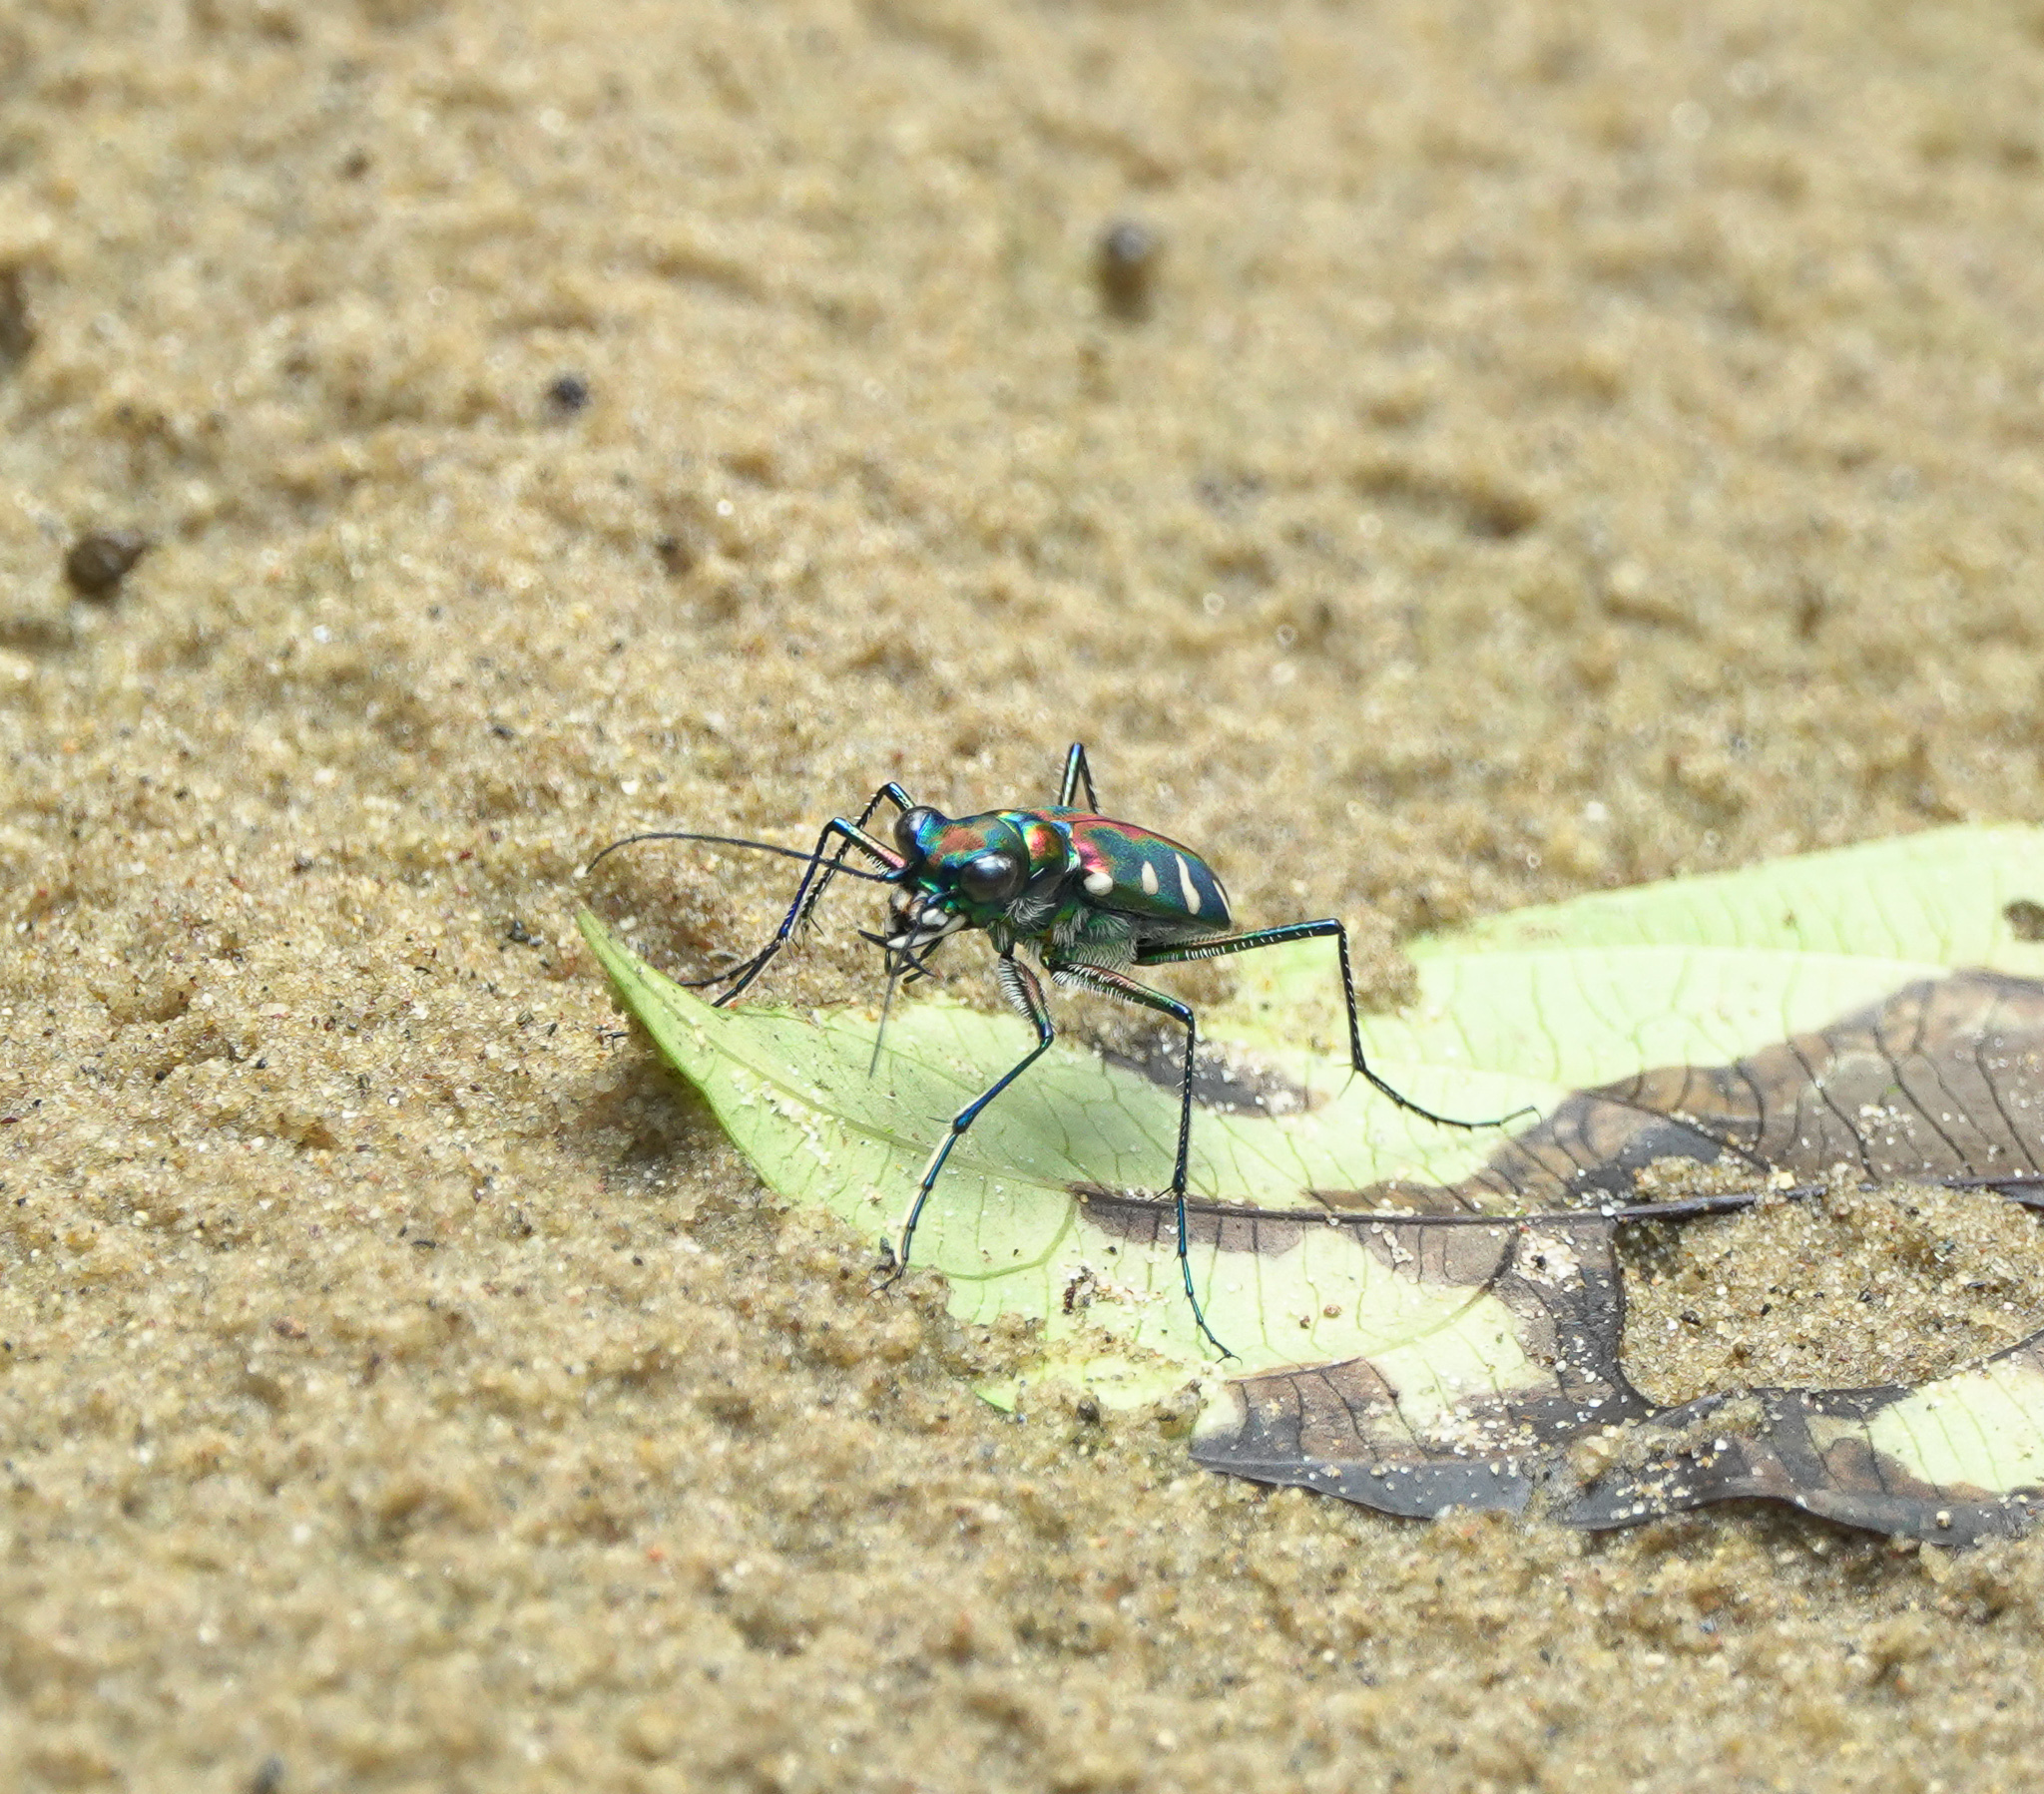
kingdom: Animalia
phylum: Arthropoda
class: Insecta
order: Coleoptera
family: Carabidae
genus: Cicindela
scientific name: Cicindela virgula
